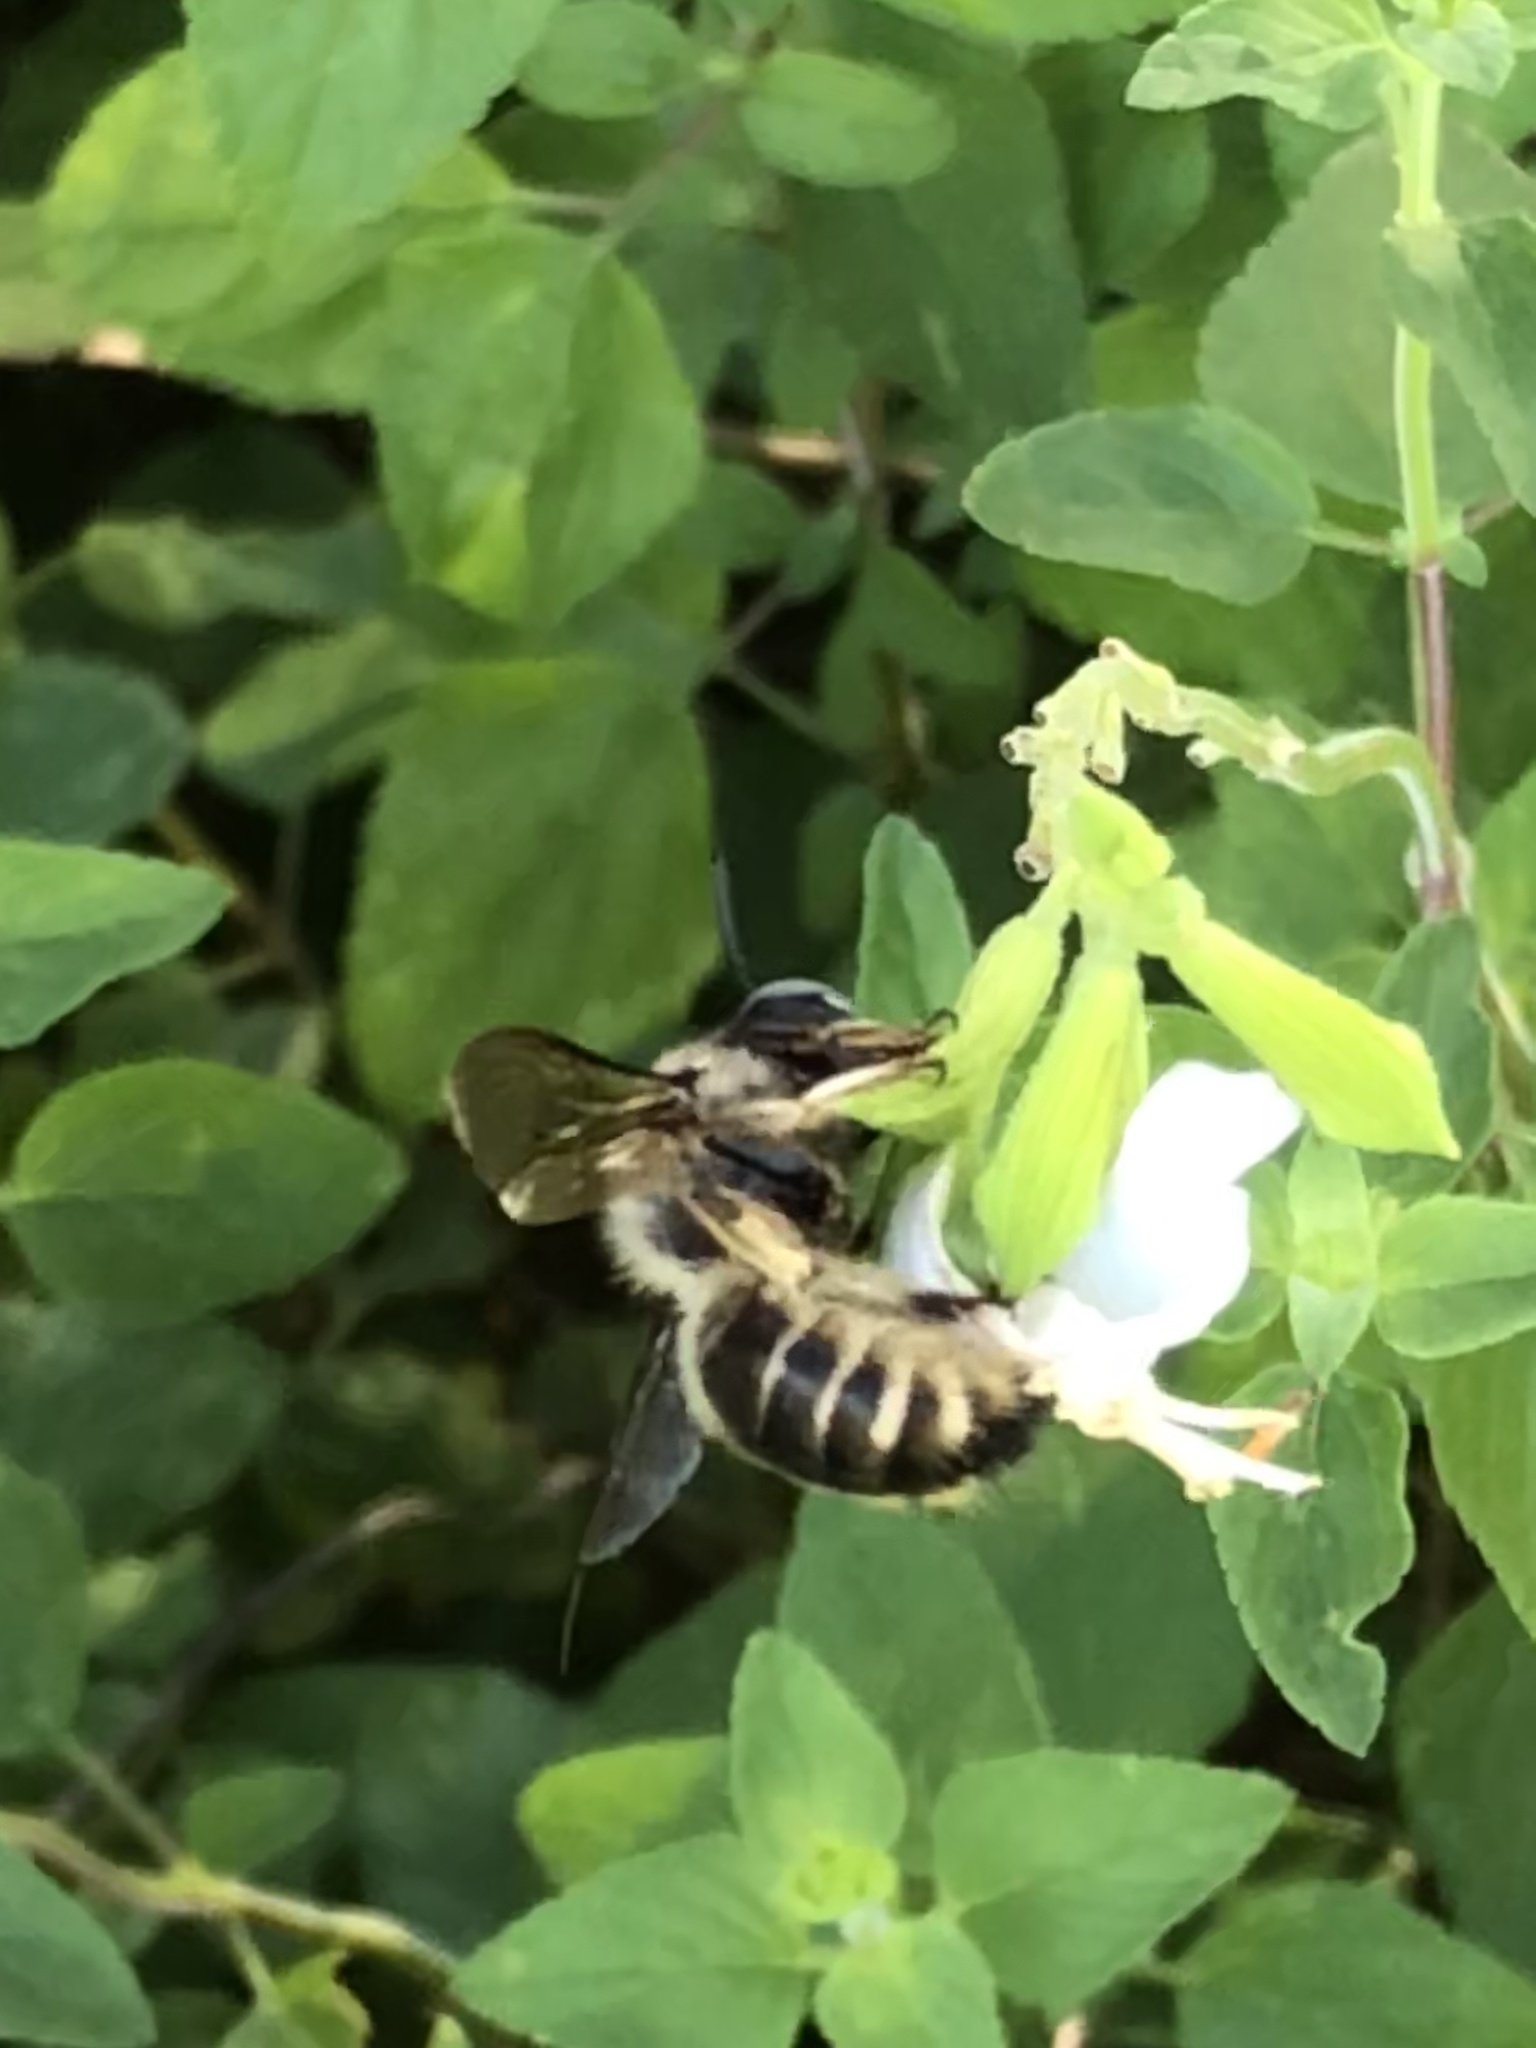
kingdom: Animalia
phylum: Arthropoda
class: Insecta
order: Hymenoptera
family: Apidae
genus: Xylocopa
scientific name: Xylocopa tabaniformis
